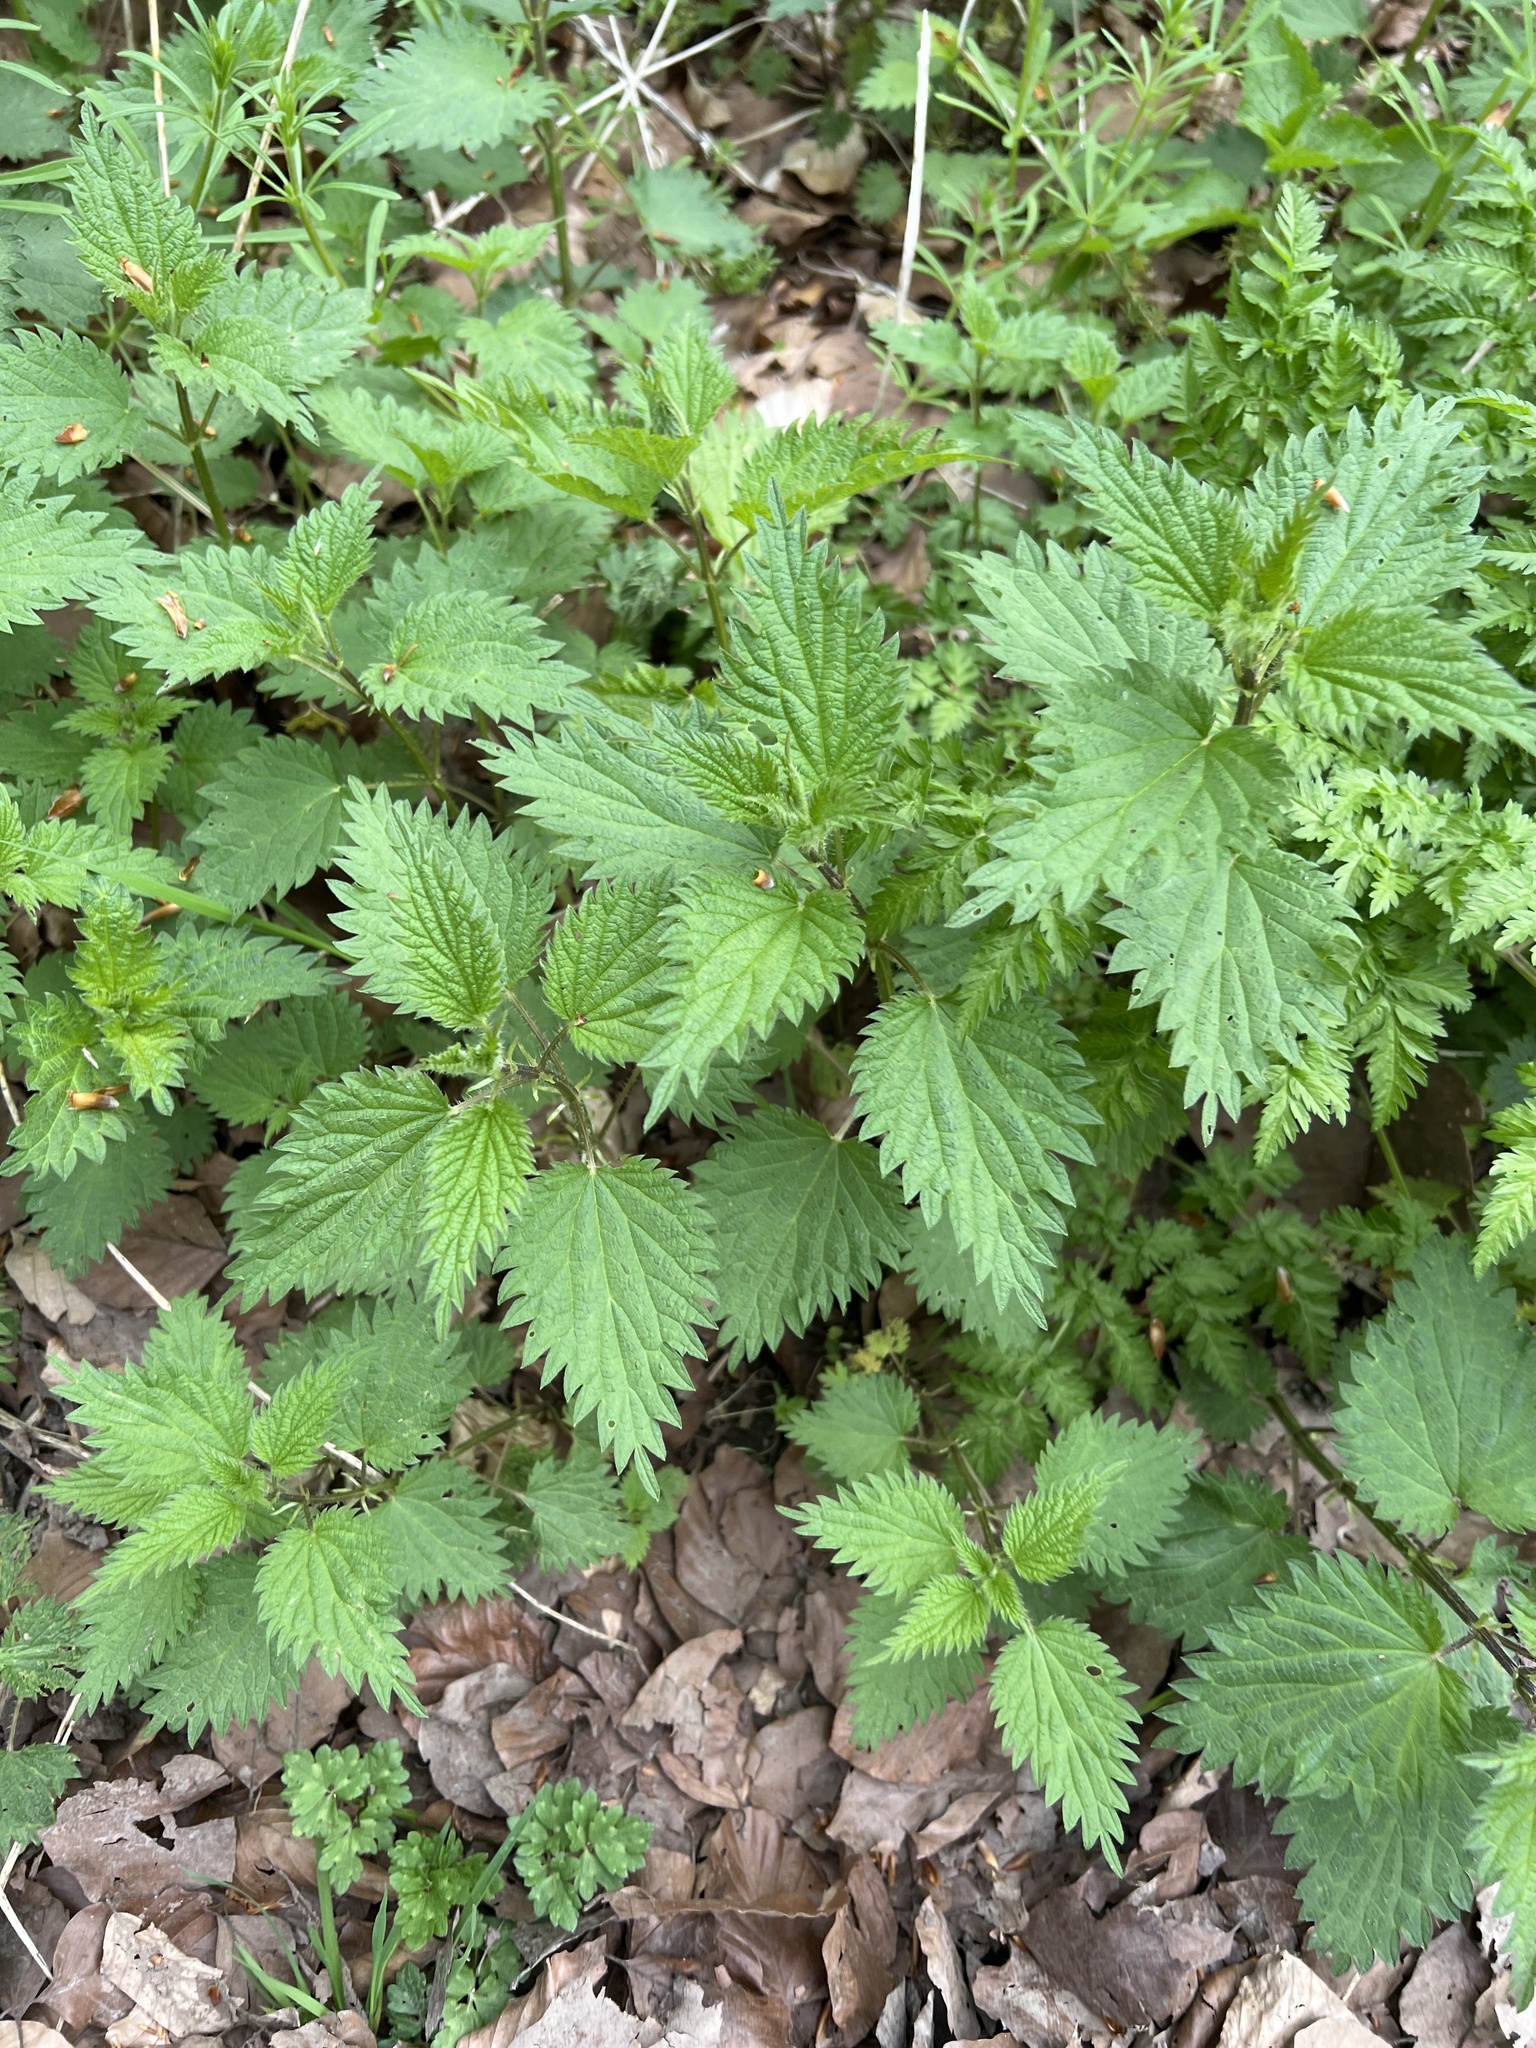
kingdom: Plantae
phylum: Tracheophyta
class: Magnoliopsida
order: Rosales
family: Urticaceae
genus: Urtica
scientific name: Urtica dioica
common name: Common nettle
